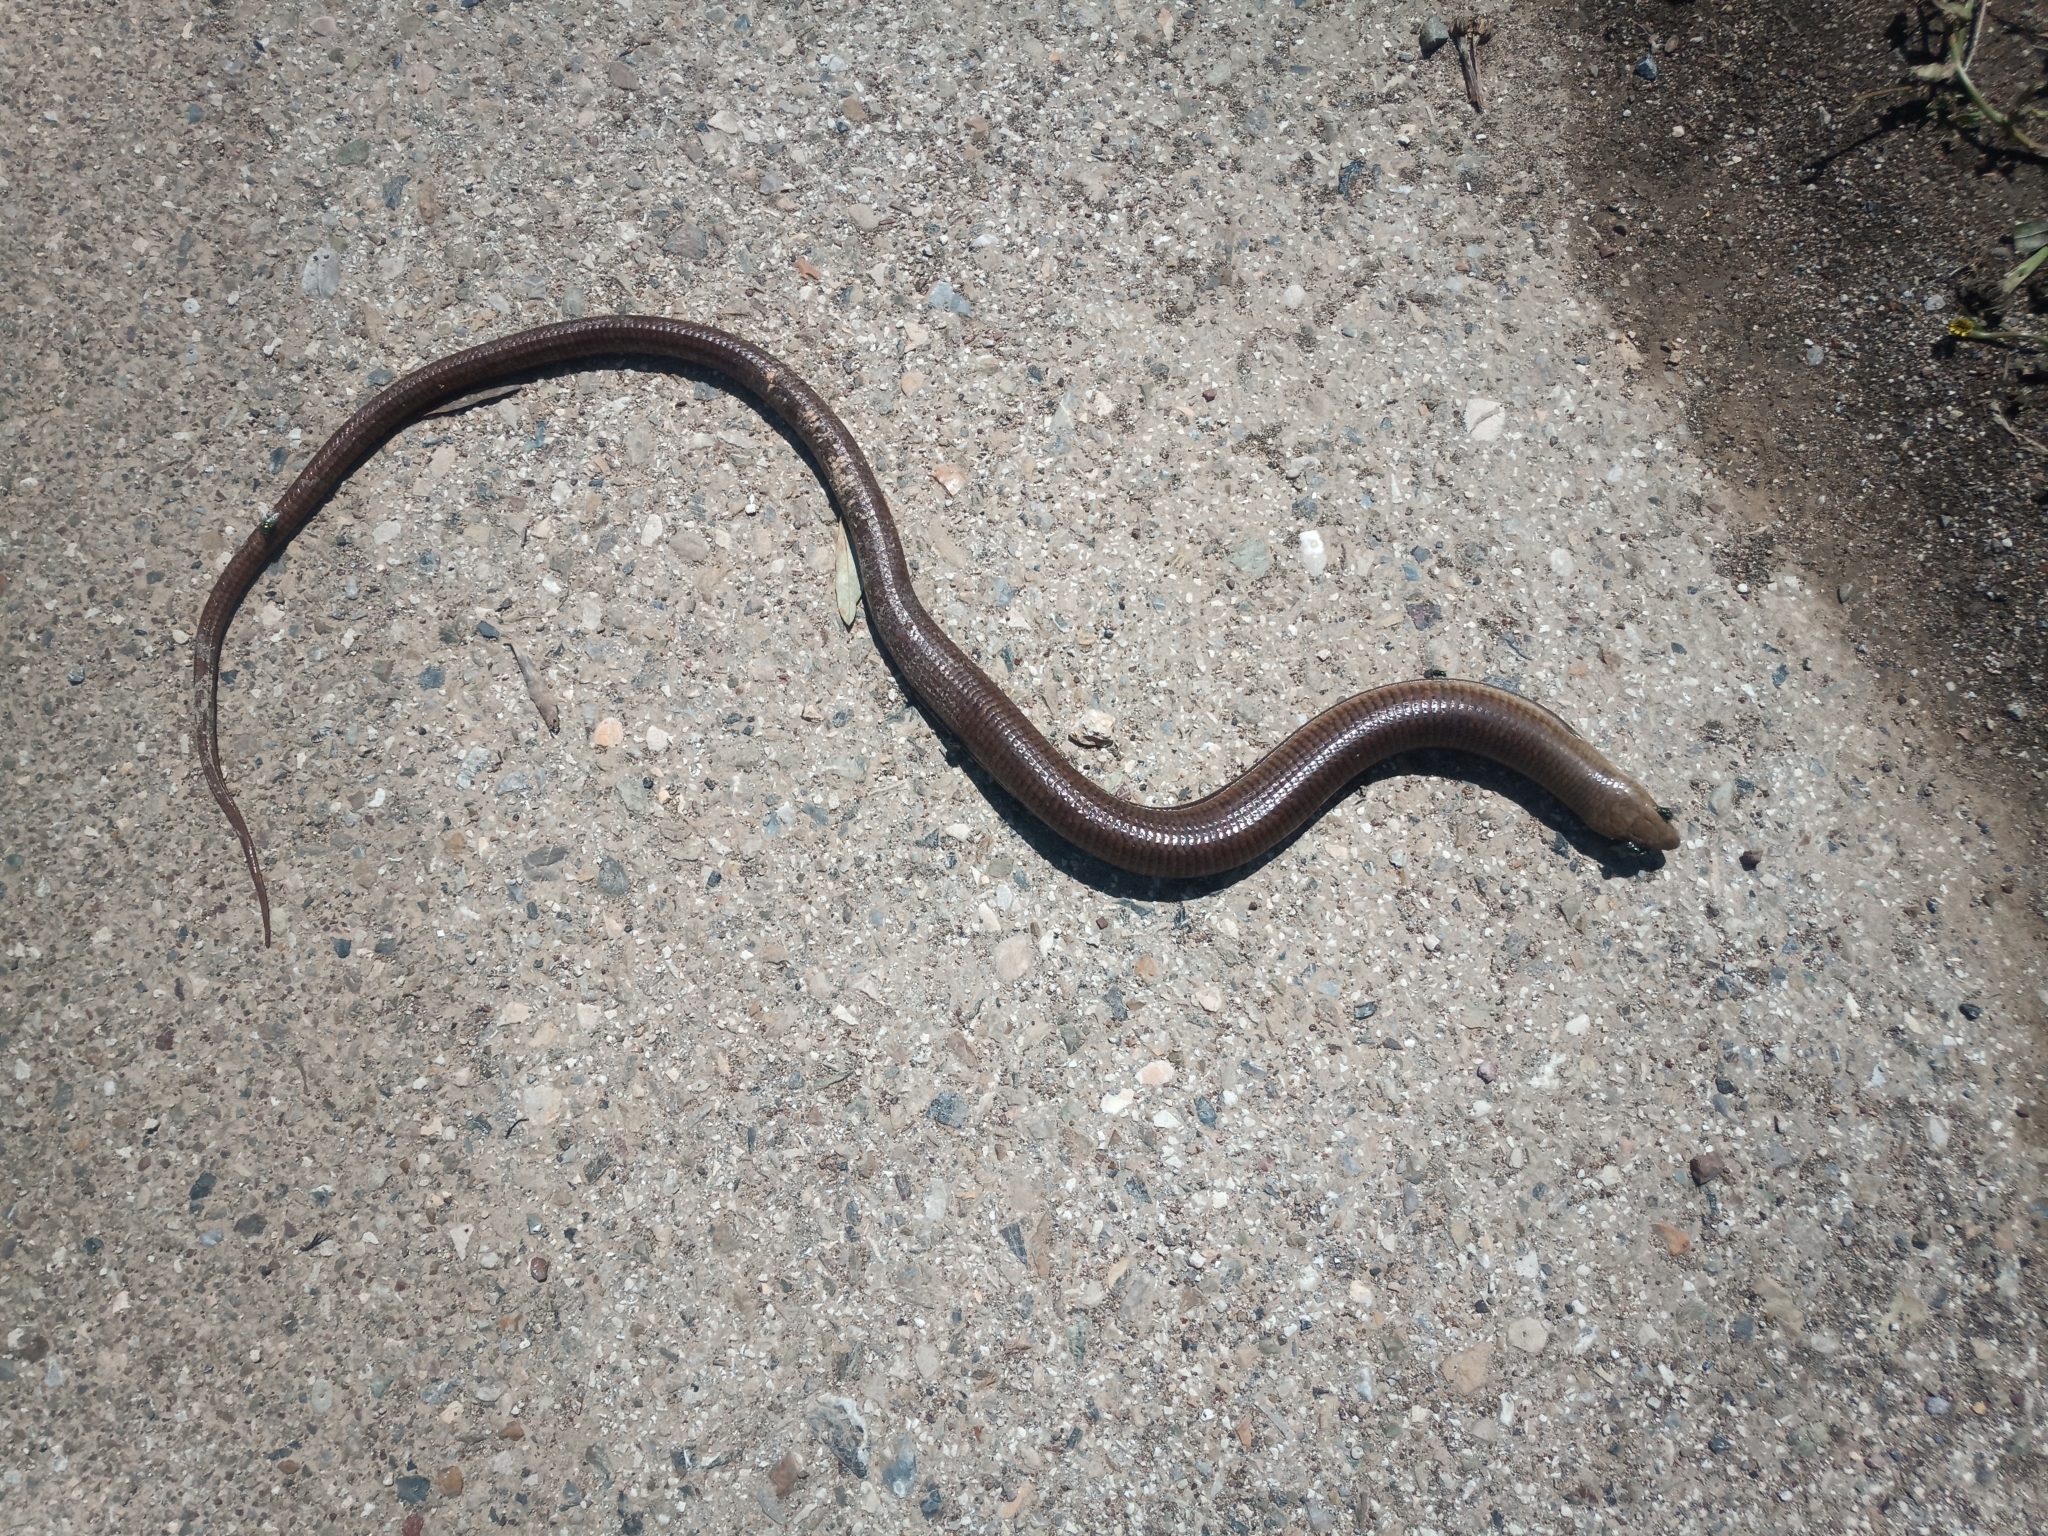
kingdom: Animalia
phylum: Chordata
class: Squamata
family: Anguidae
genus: Pseudopus
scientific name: Pseudopus apodus
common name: European glass lizard
